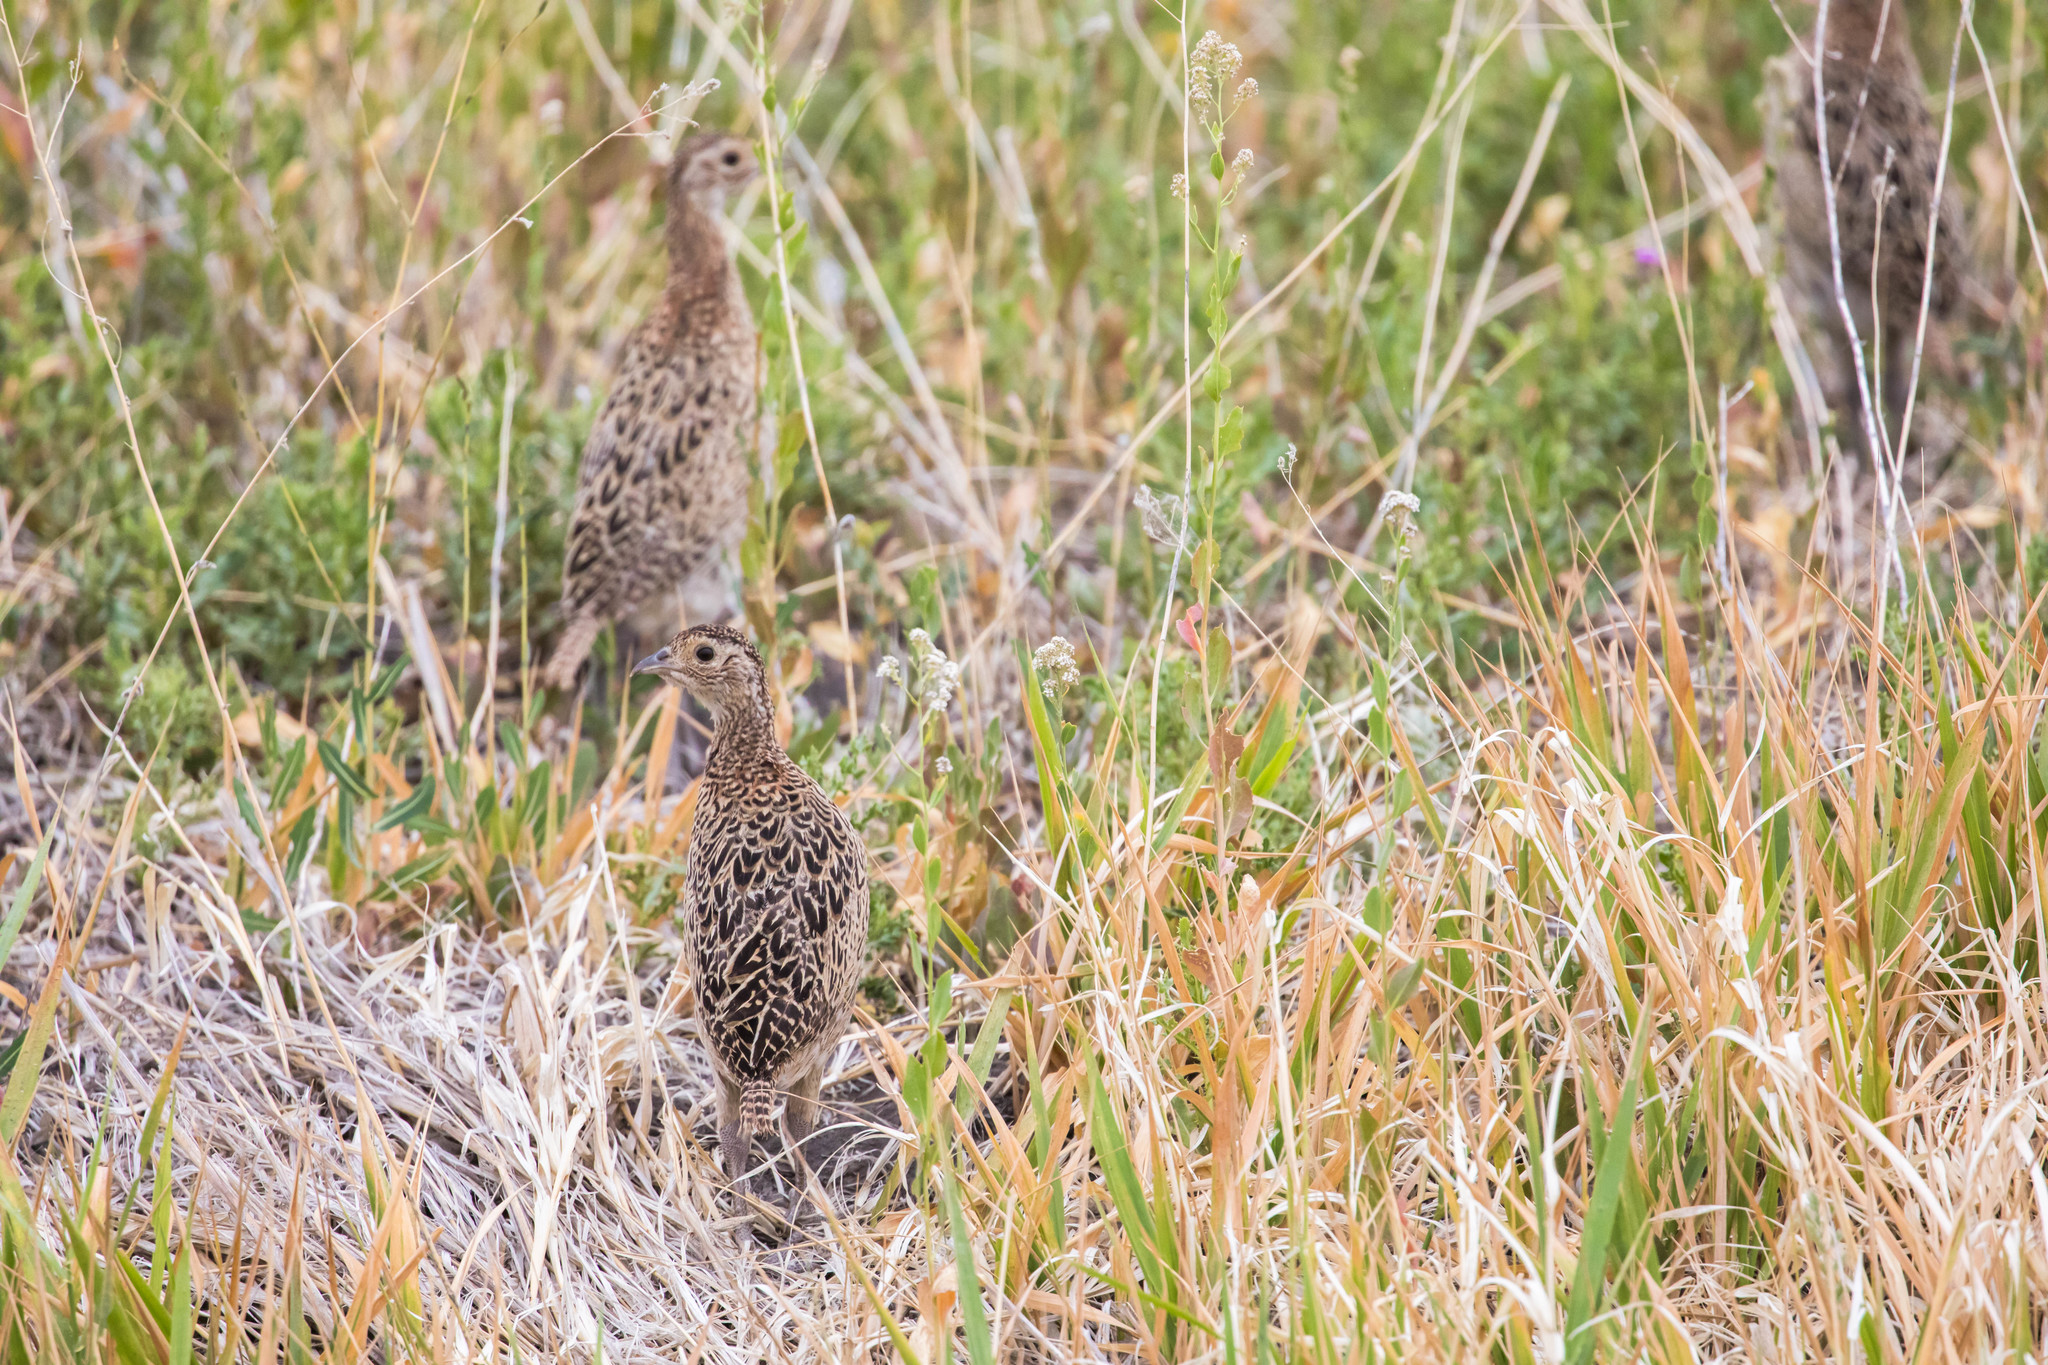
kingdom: Animalia
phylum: Chordata
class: Aves
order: Galliformes
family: Phasianidae
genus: Phasianus
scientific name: Phasianus colchicus
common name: Common pheasant
